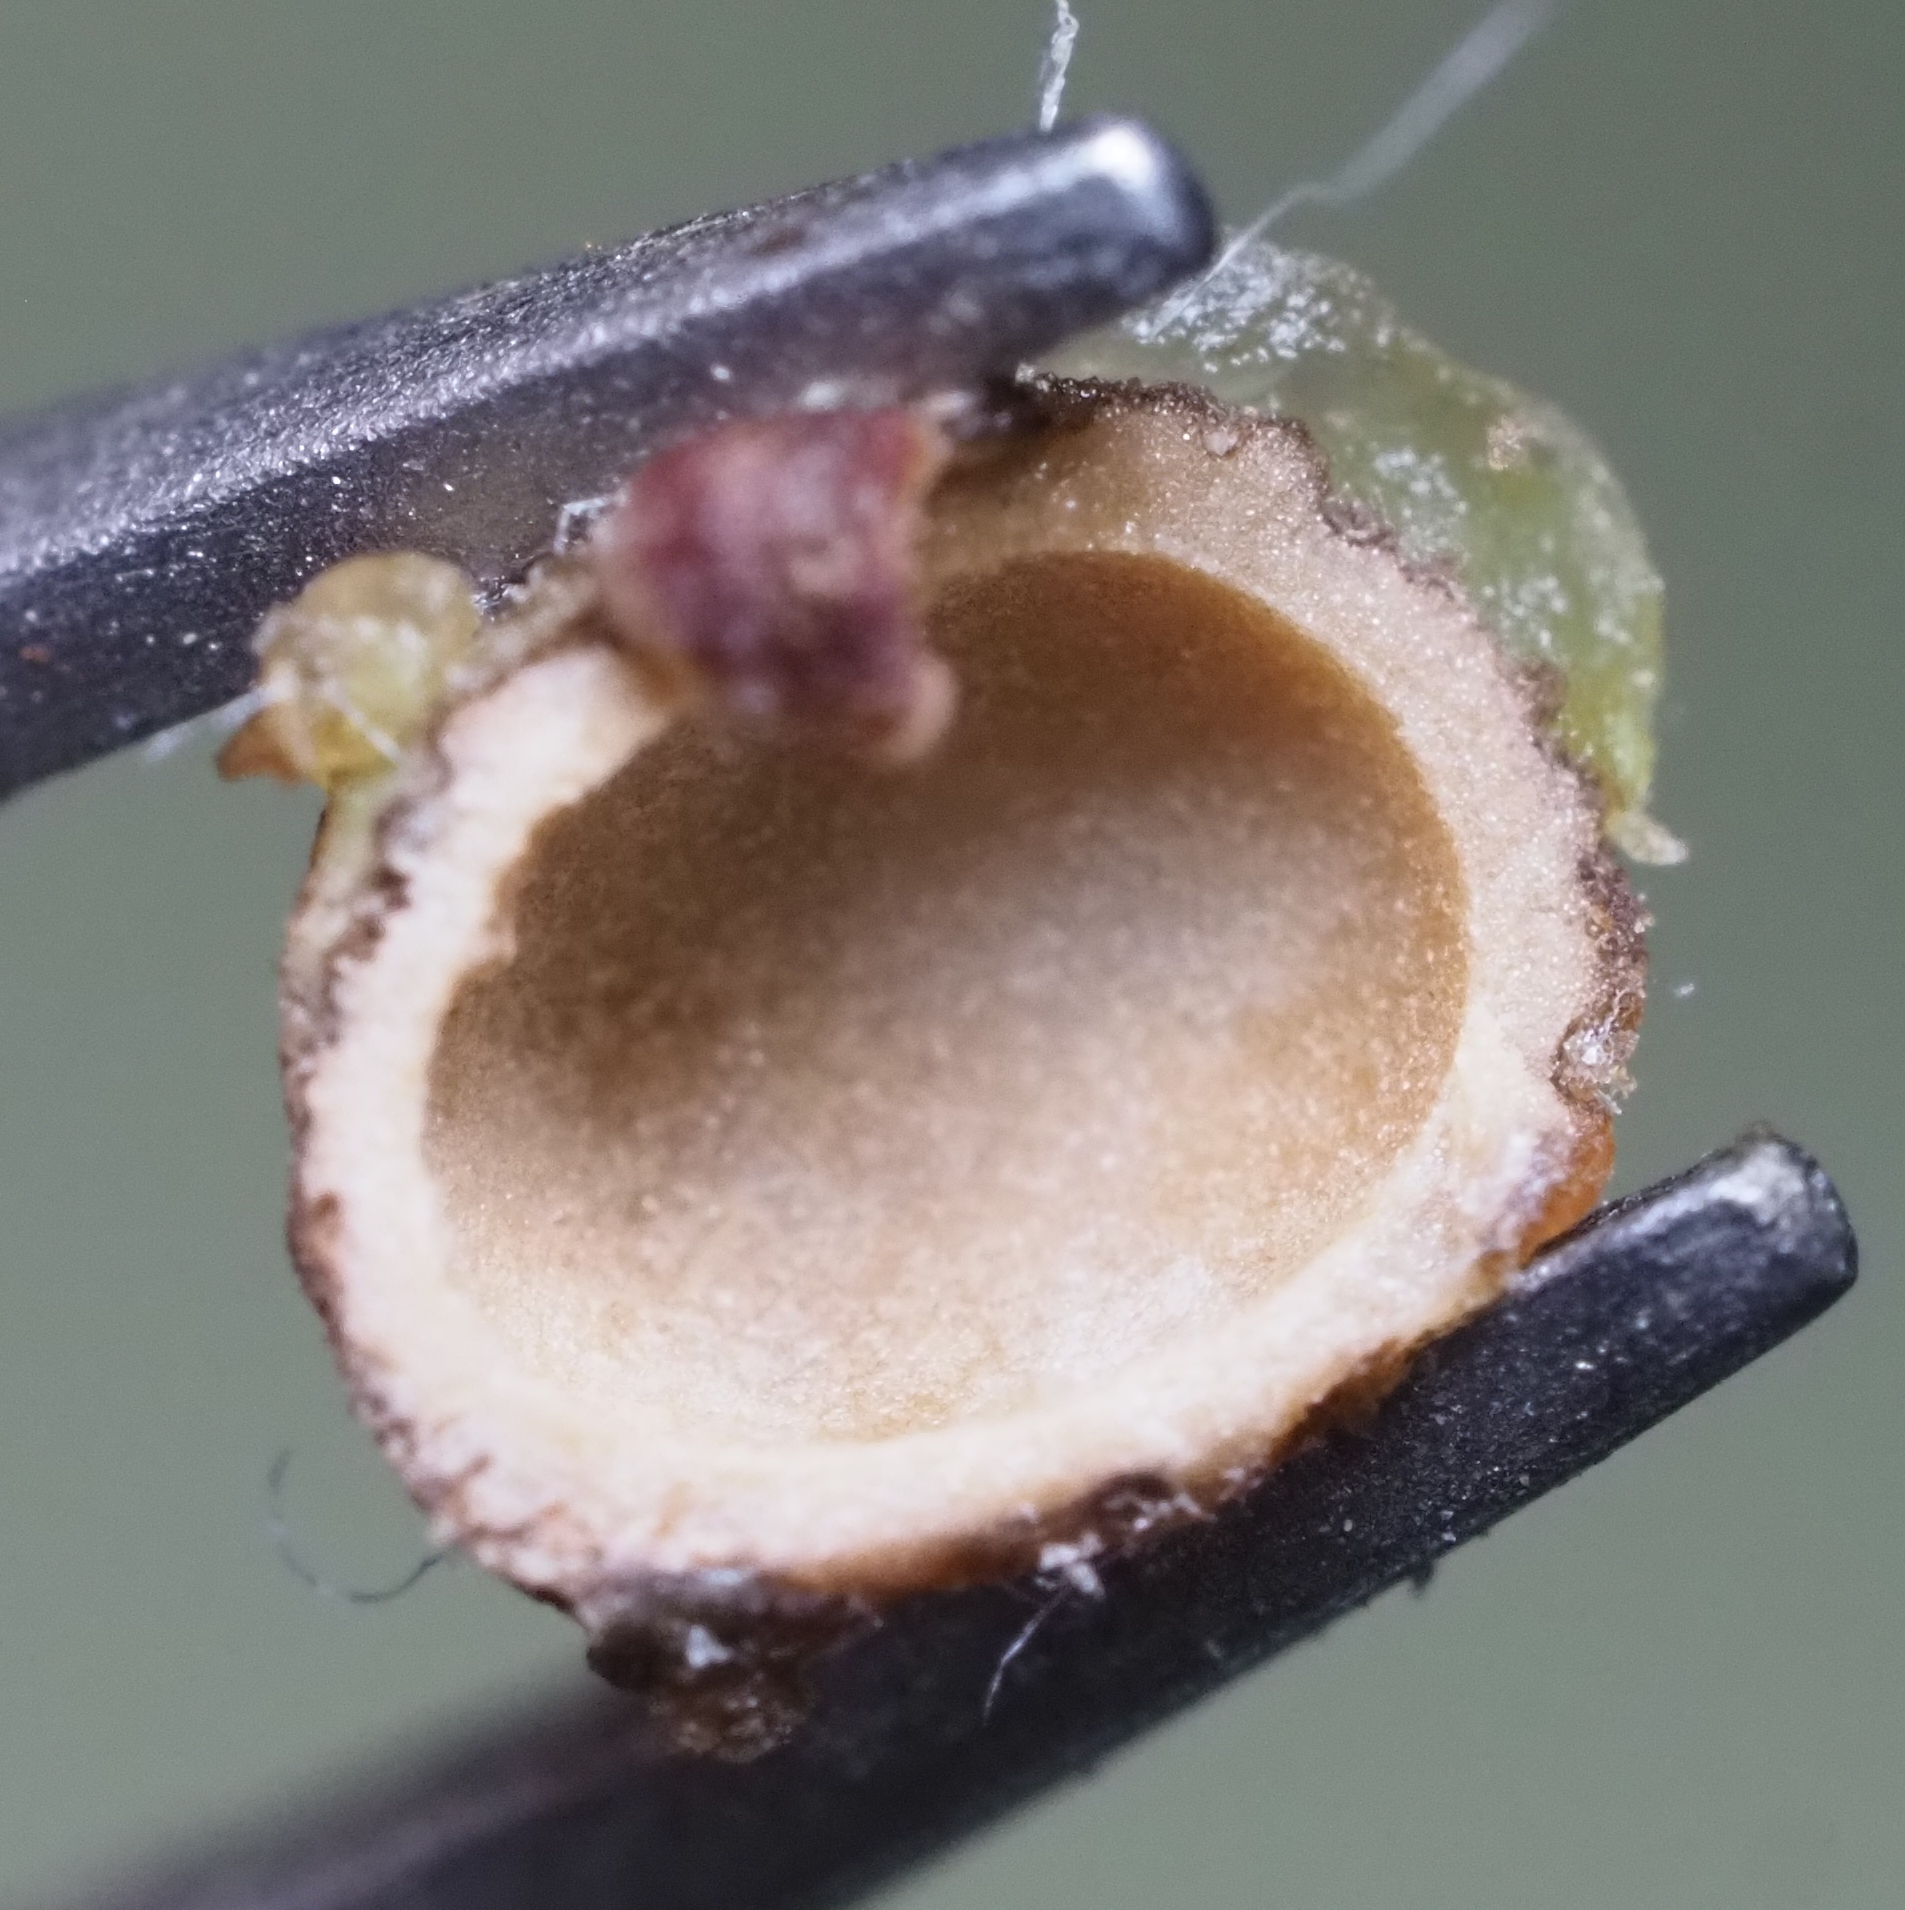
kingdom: Animalia
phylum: Arthropoda
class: Insecta
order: Hymenoptera
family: Cynipidae
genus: Andricus
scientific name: Andricus quercusfoliatus
